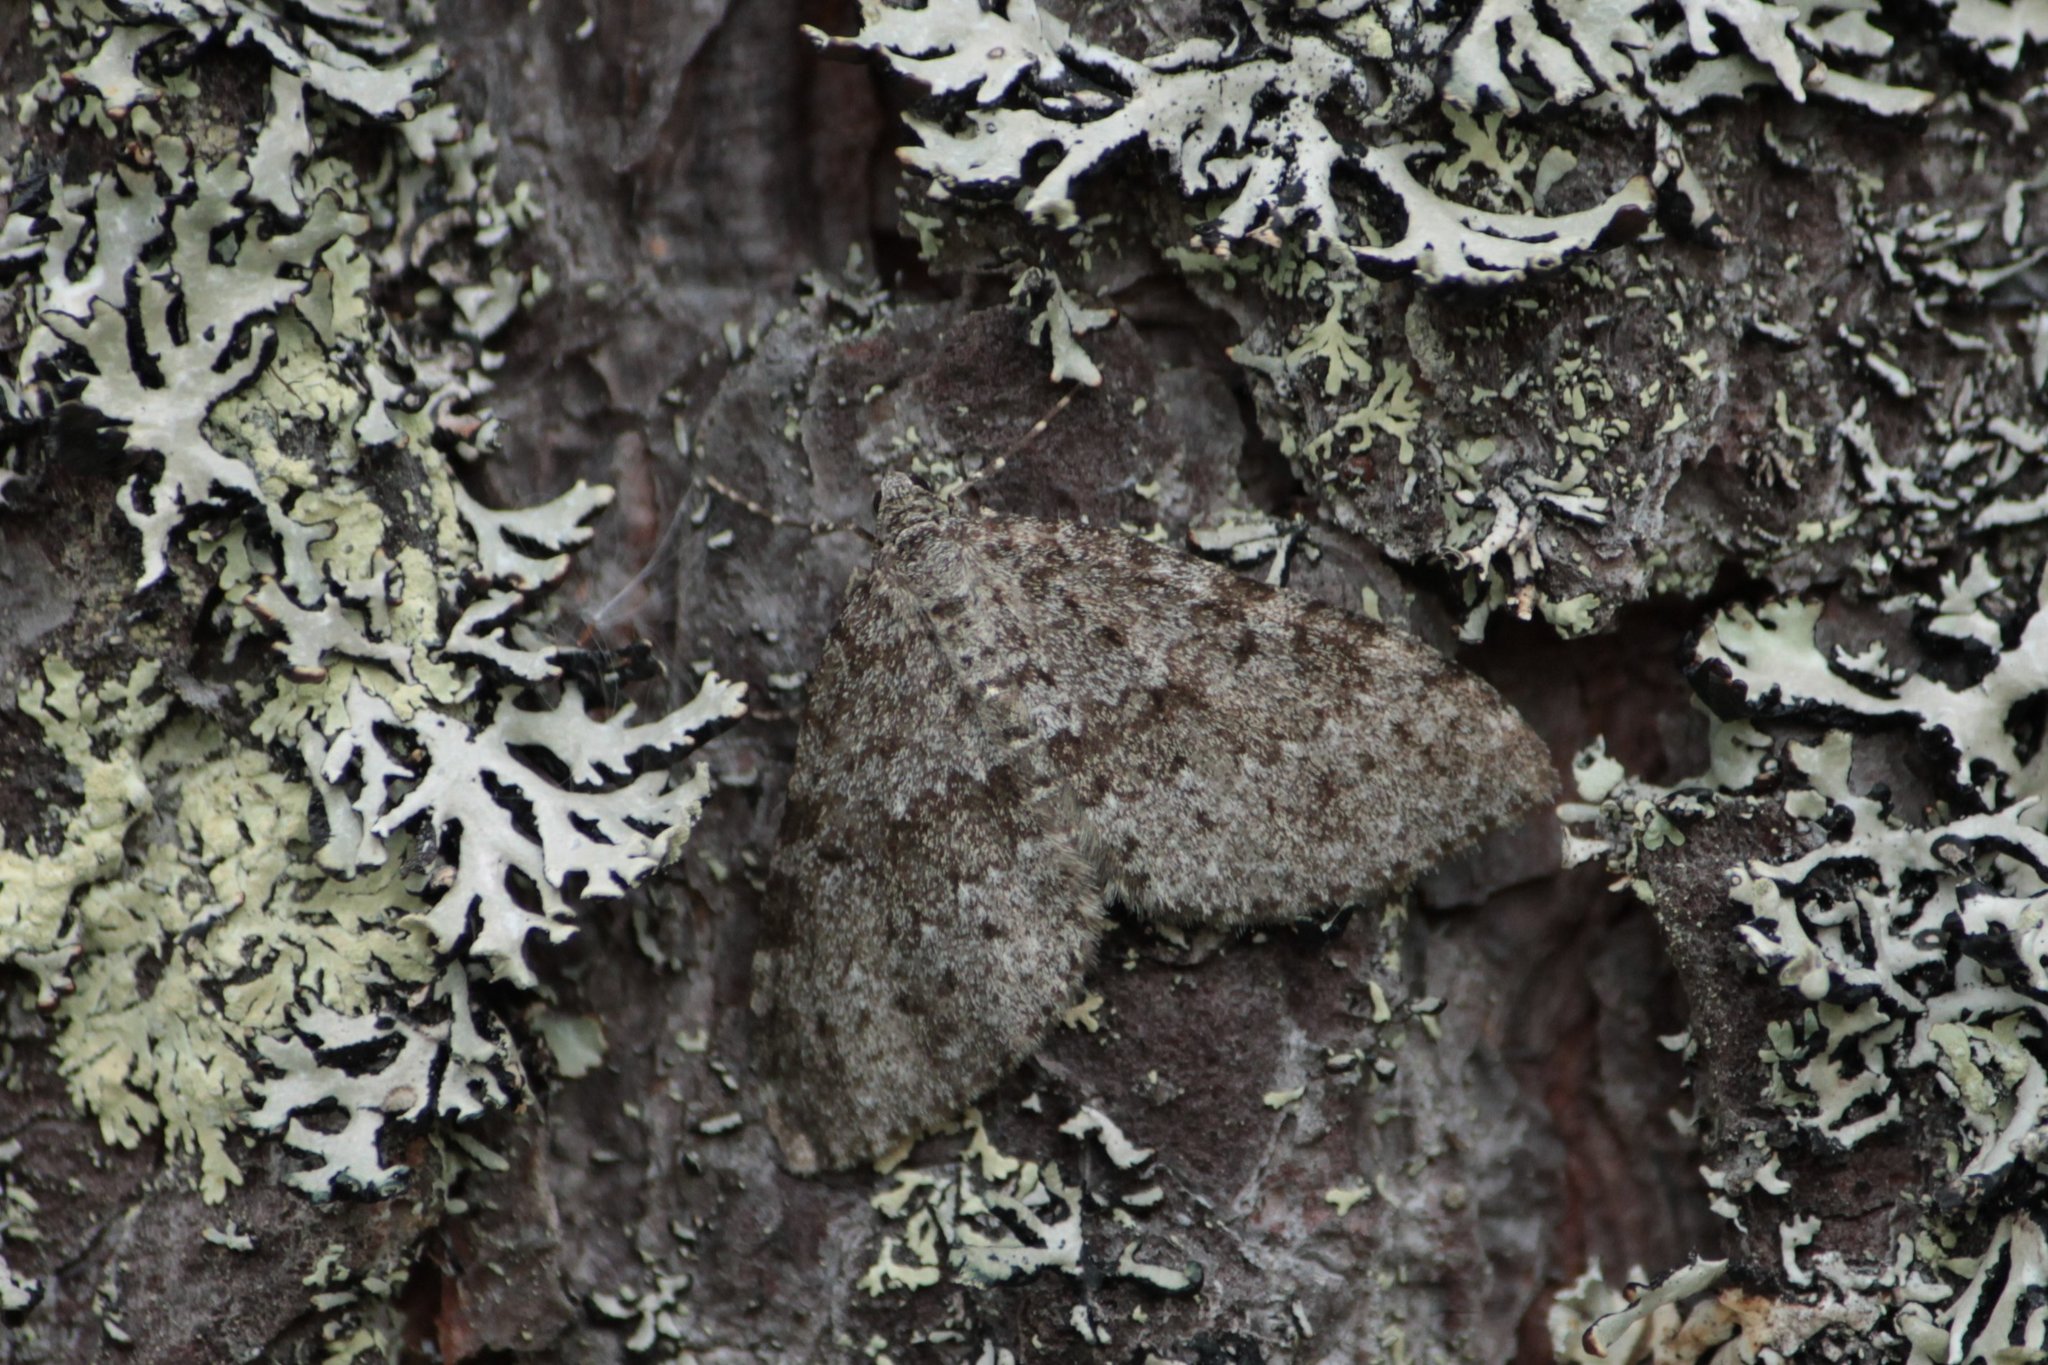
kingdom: Animalia
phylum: Arthropoda
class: Insecta
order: Lepidoptera
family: Geometridae
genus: Entephria
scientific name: Entephria caesiata
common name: Grey mountain moth
